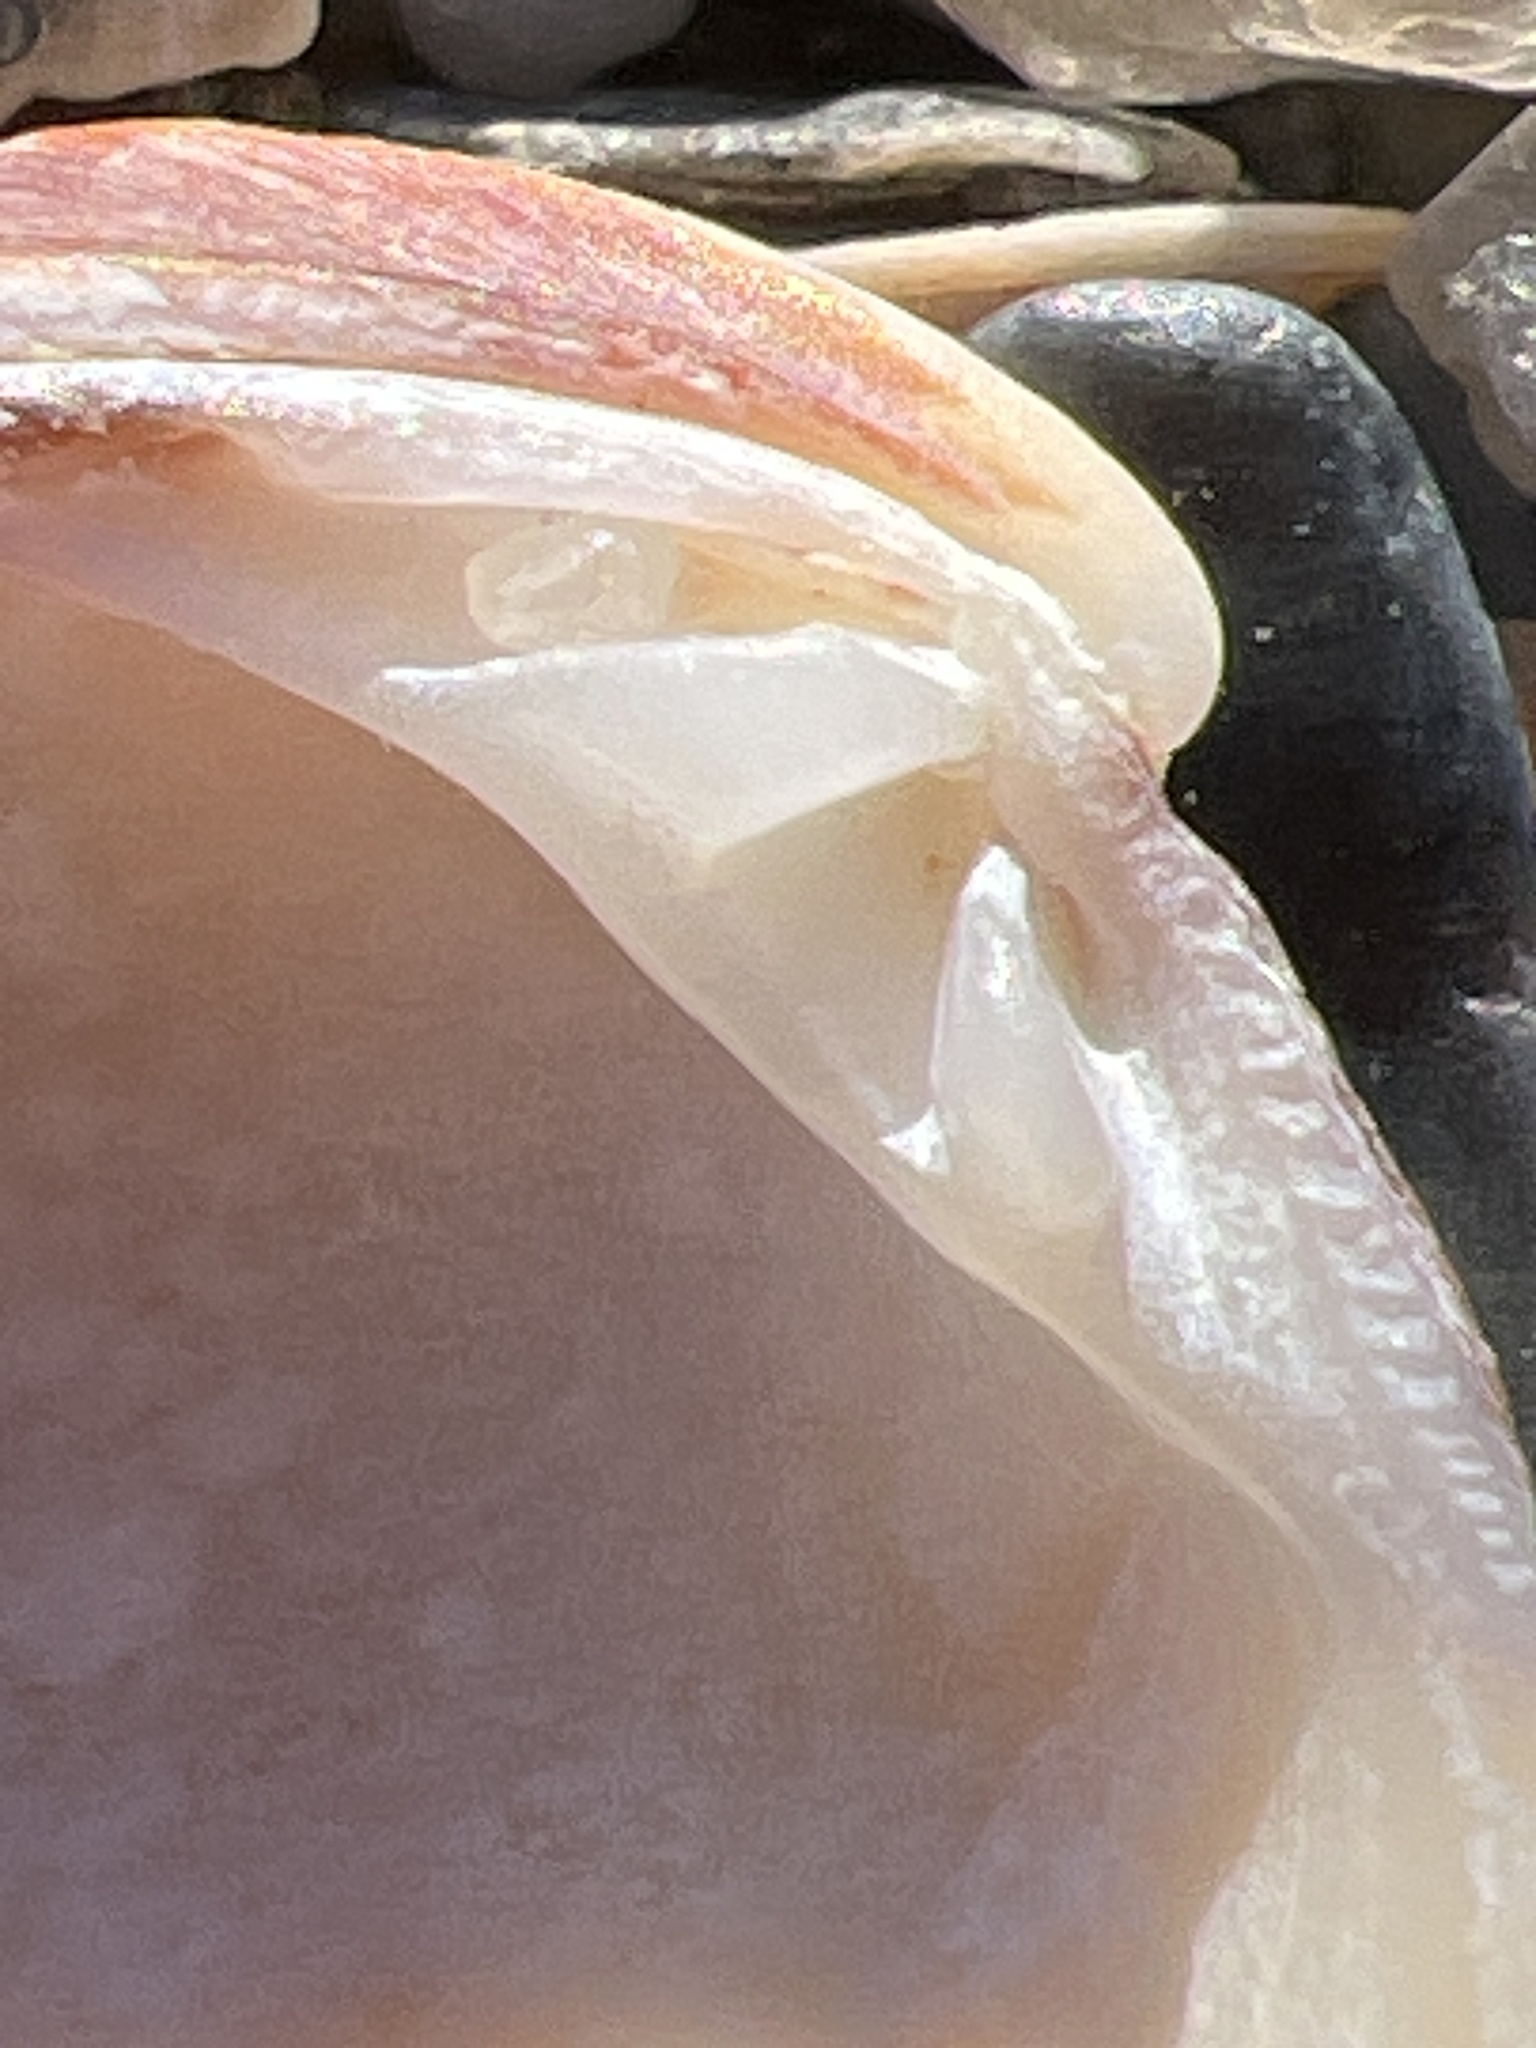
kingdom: Animalia
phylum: Mollusca
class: Bivalvia
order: Venerida
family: Veneridae
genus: Chione
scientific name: Chione elevata
